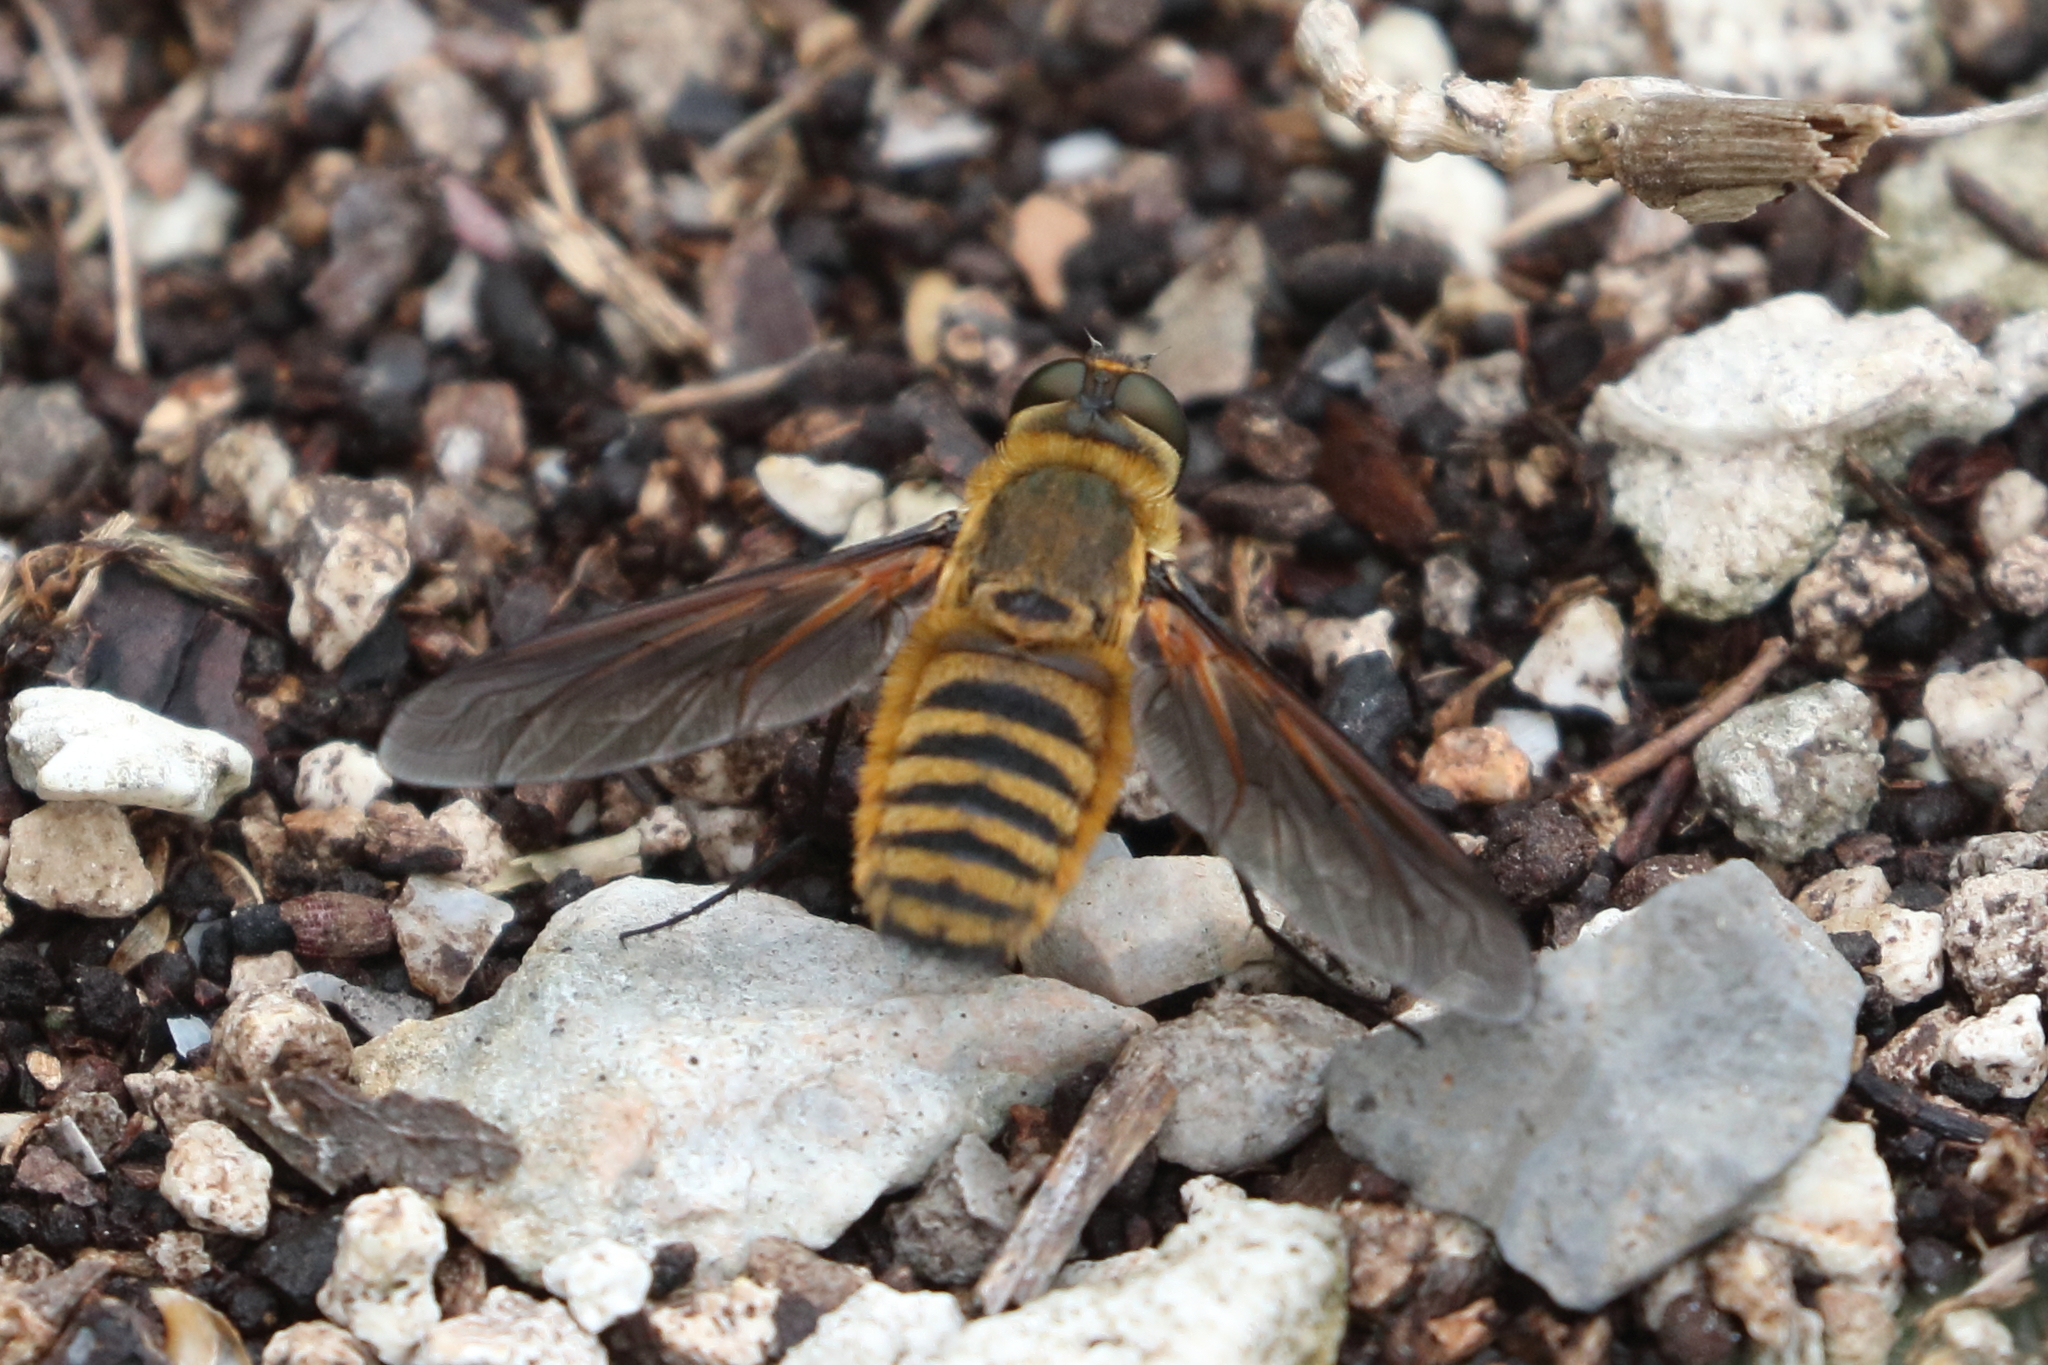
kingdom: Animalia
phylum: Arthropoda
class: Insecta
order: Diptera
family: Bombyliidae
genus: Poecilanthrax
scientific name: Poecilanthrax lucifer
